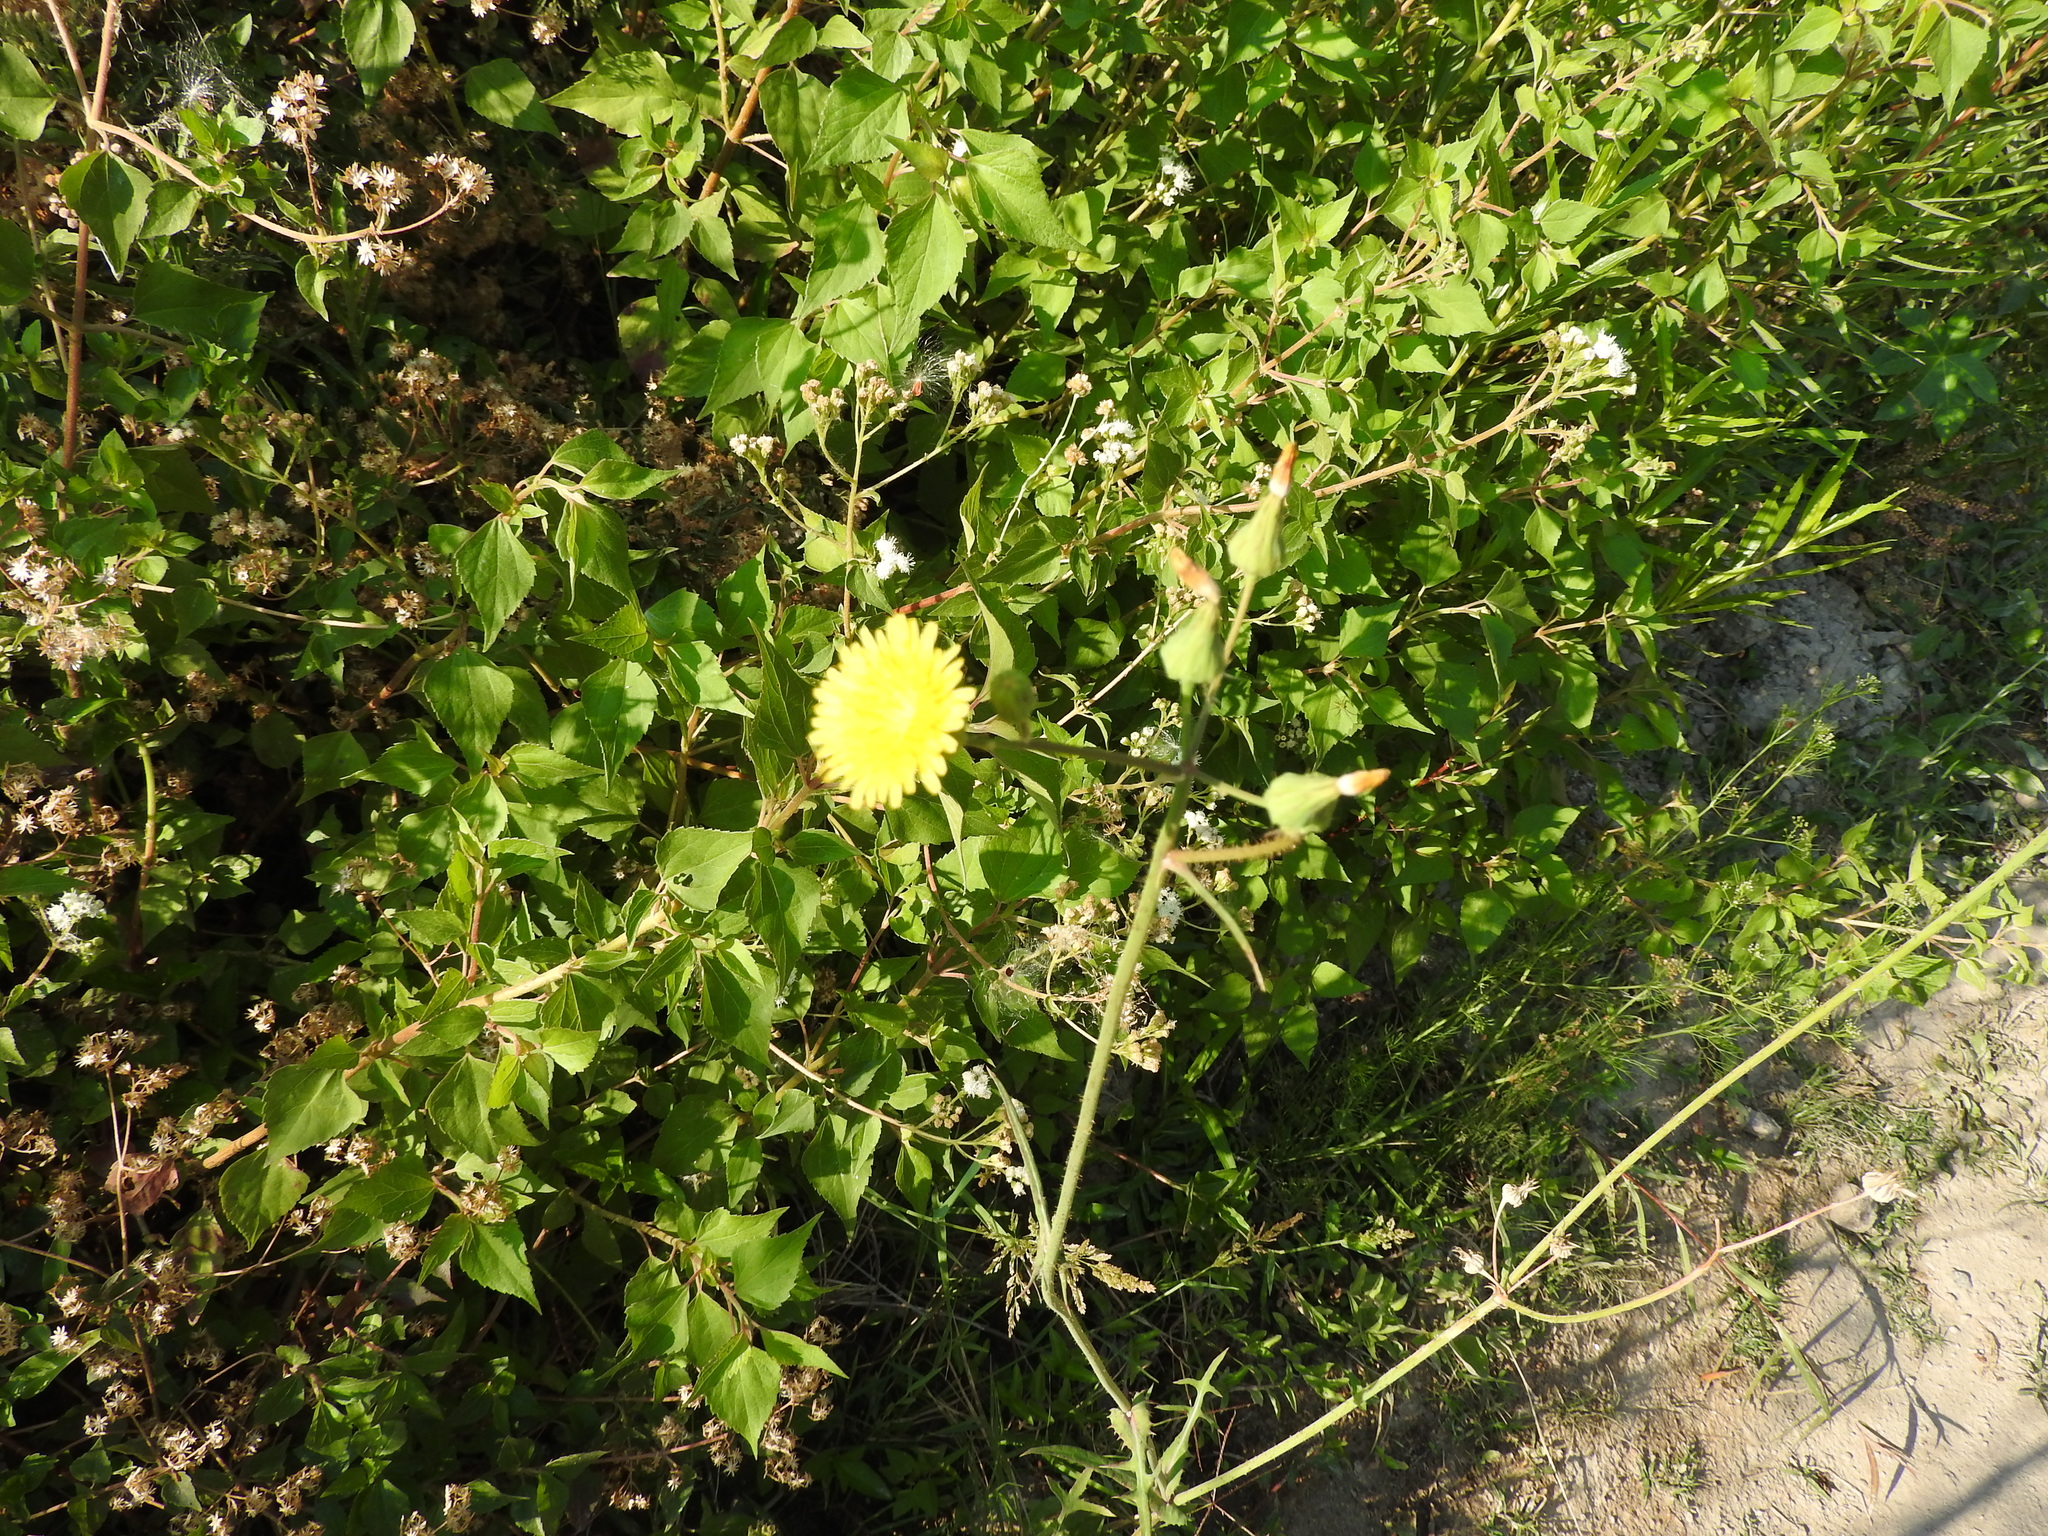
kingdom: Plantae
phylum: Tracheophyta
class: Magnoliopsida
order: Asterales
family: Asteraceae
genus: Sonchus
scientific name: Sonchus asper
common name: Prickly sow-thistle
